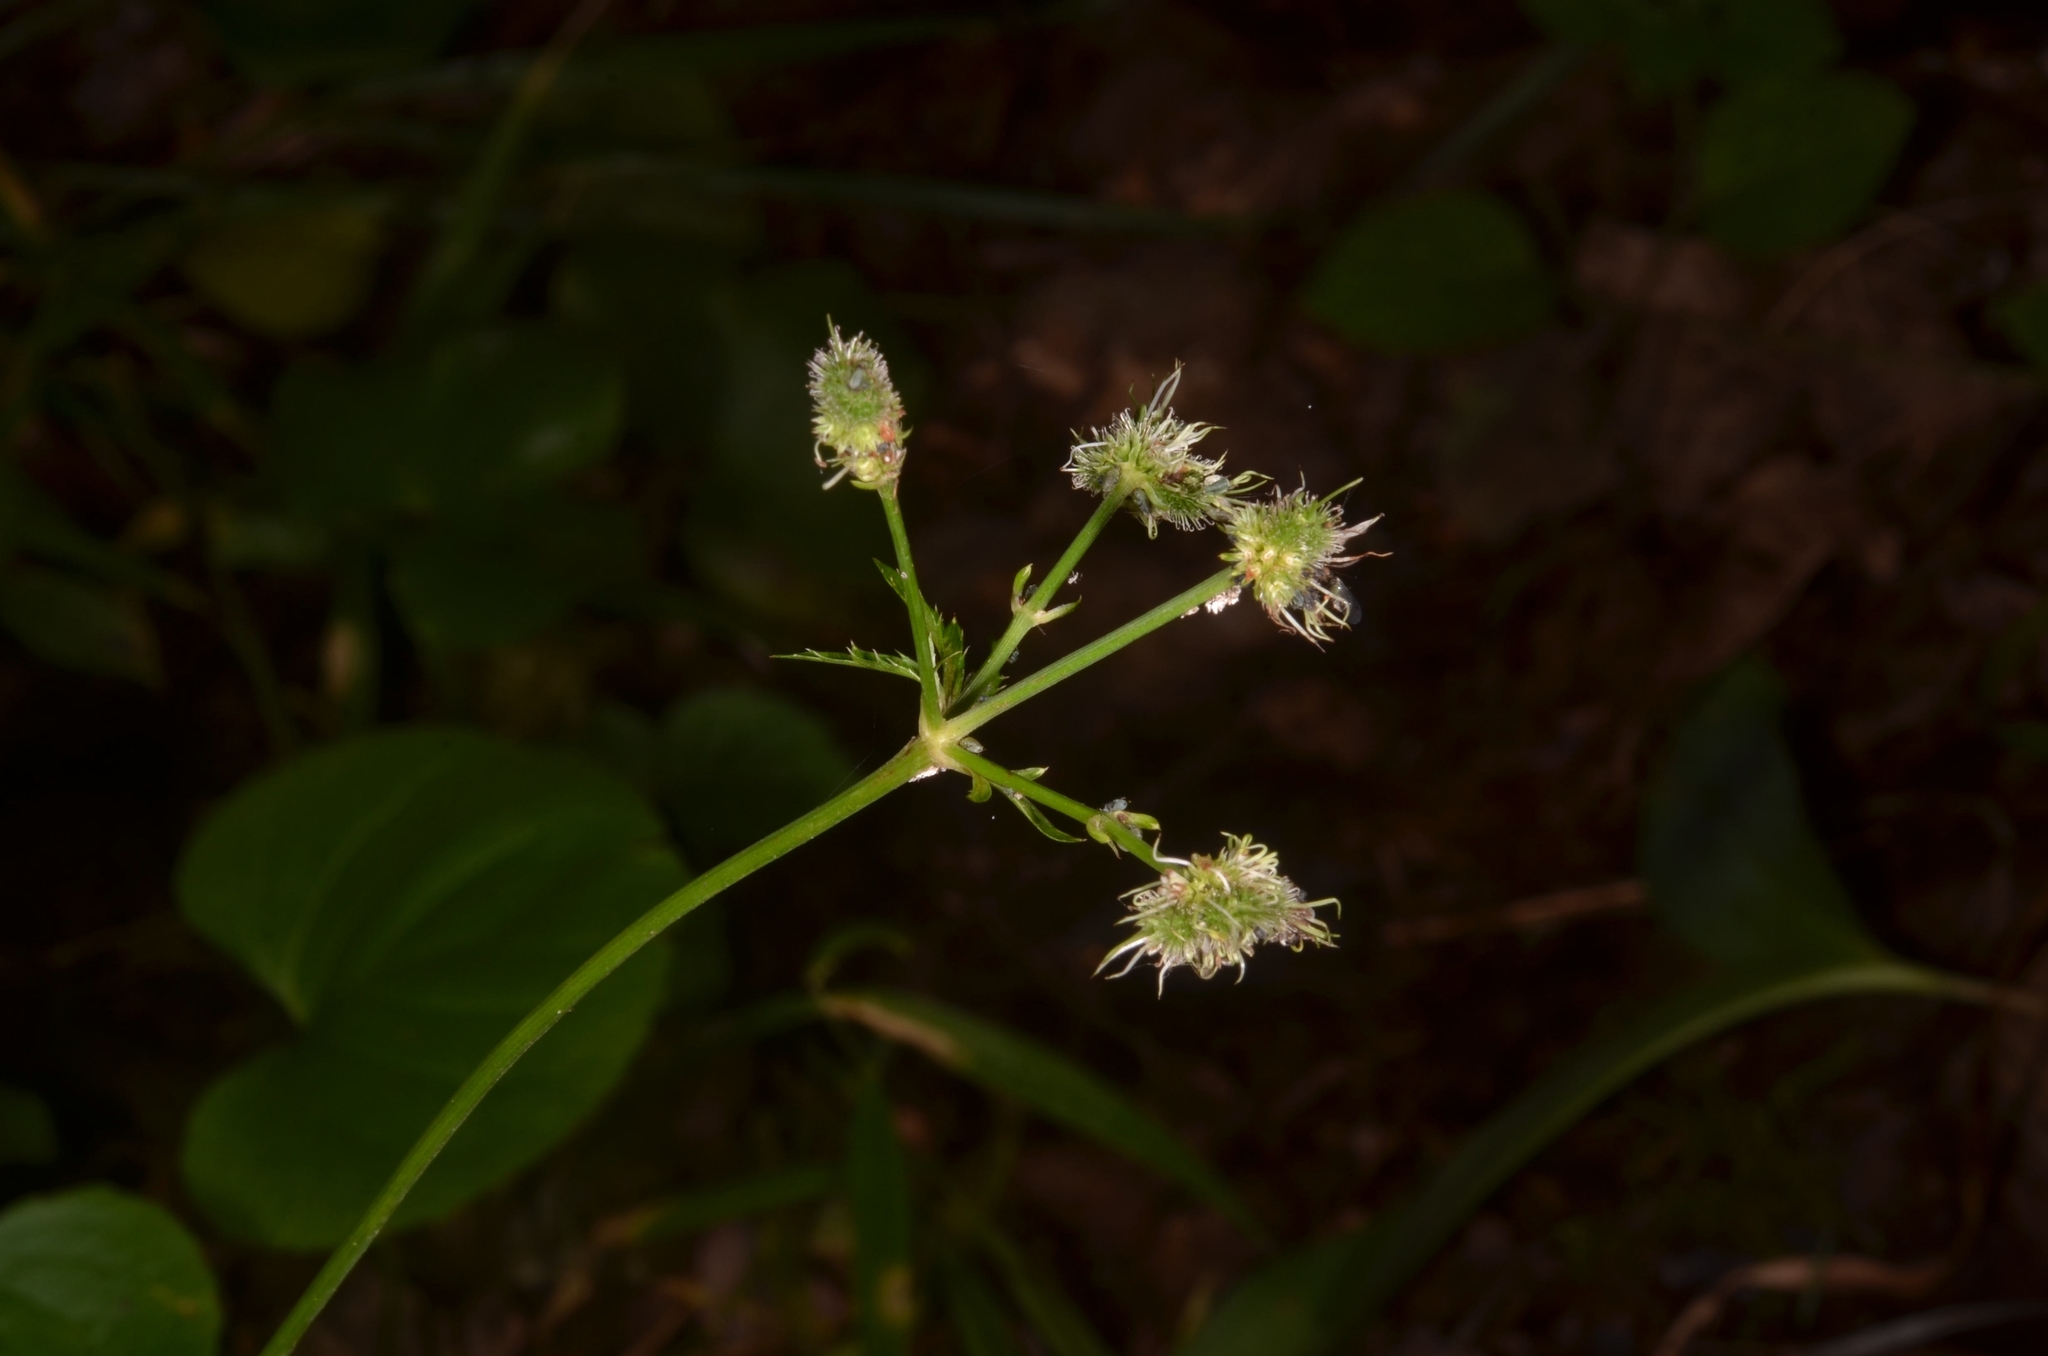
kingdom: Plantae
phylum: Tracheophyta
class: Magnoliopsida
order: Apiales
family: Apiaceae
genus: Sanicula
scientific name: Sanicula europaea
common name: Sanicle
